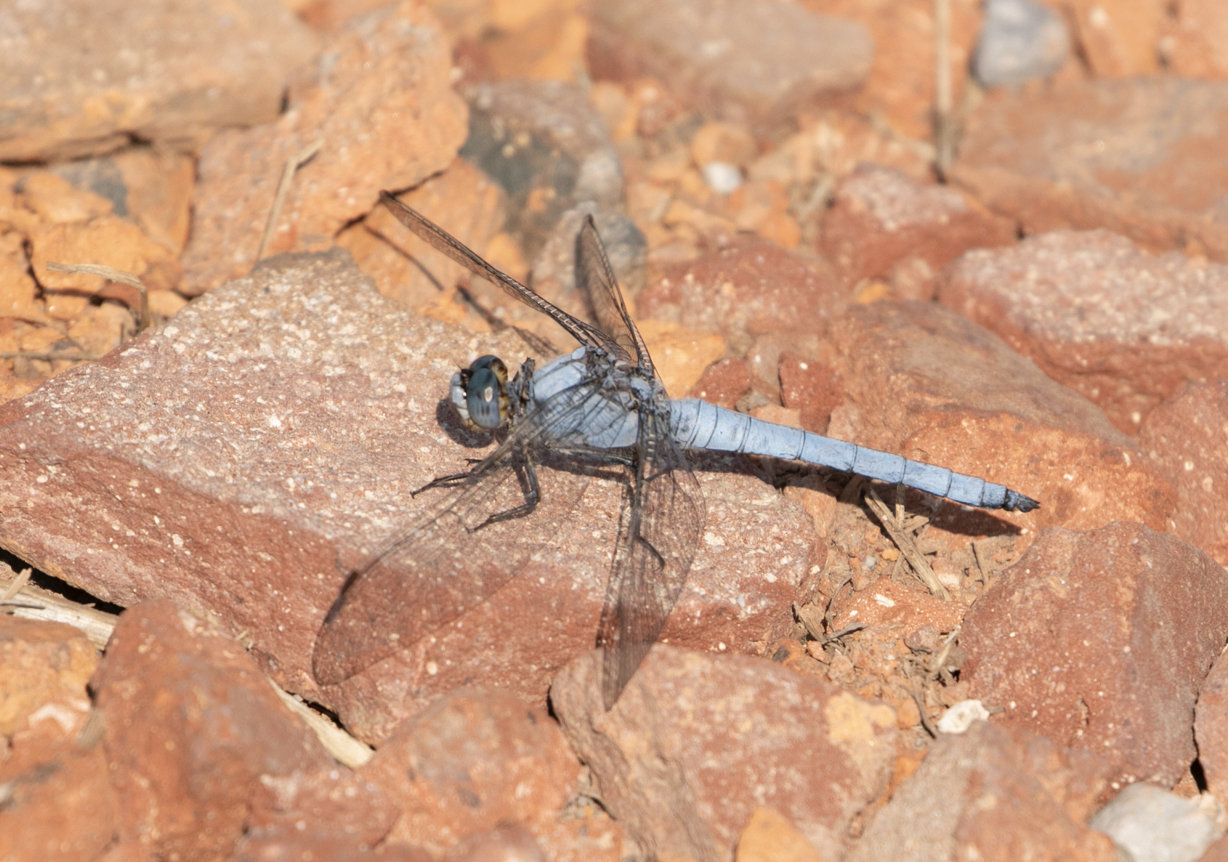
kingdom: Animalia
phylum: Arthropoda
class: Insecta
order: Odonata
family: Libellulidae
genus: Orthetrum
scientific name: Orthetrum brunneum
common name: Southern skimmer
